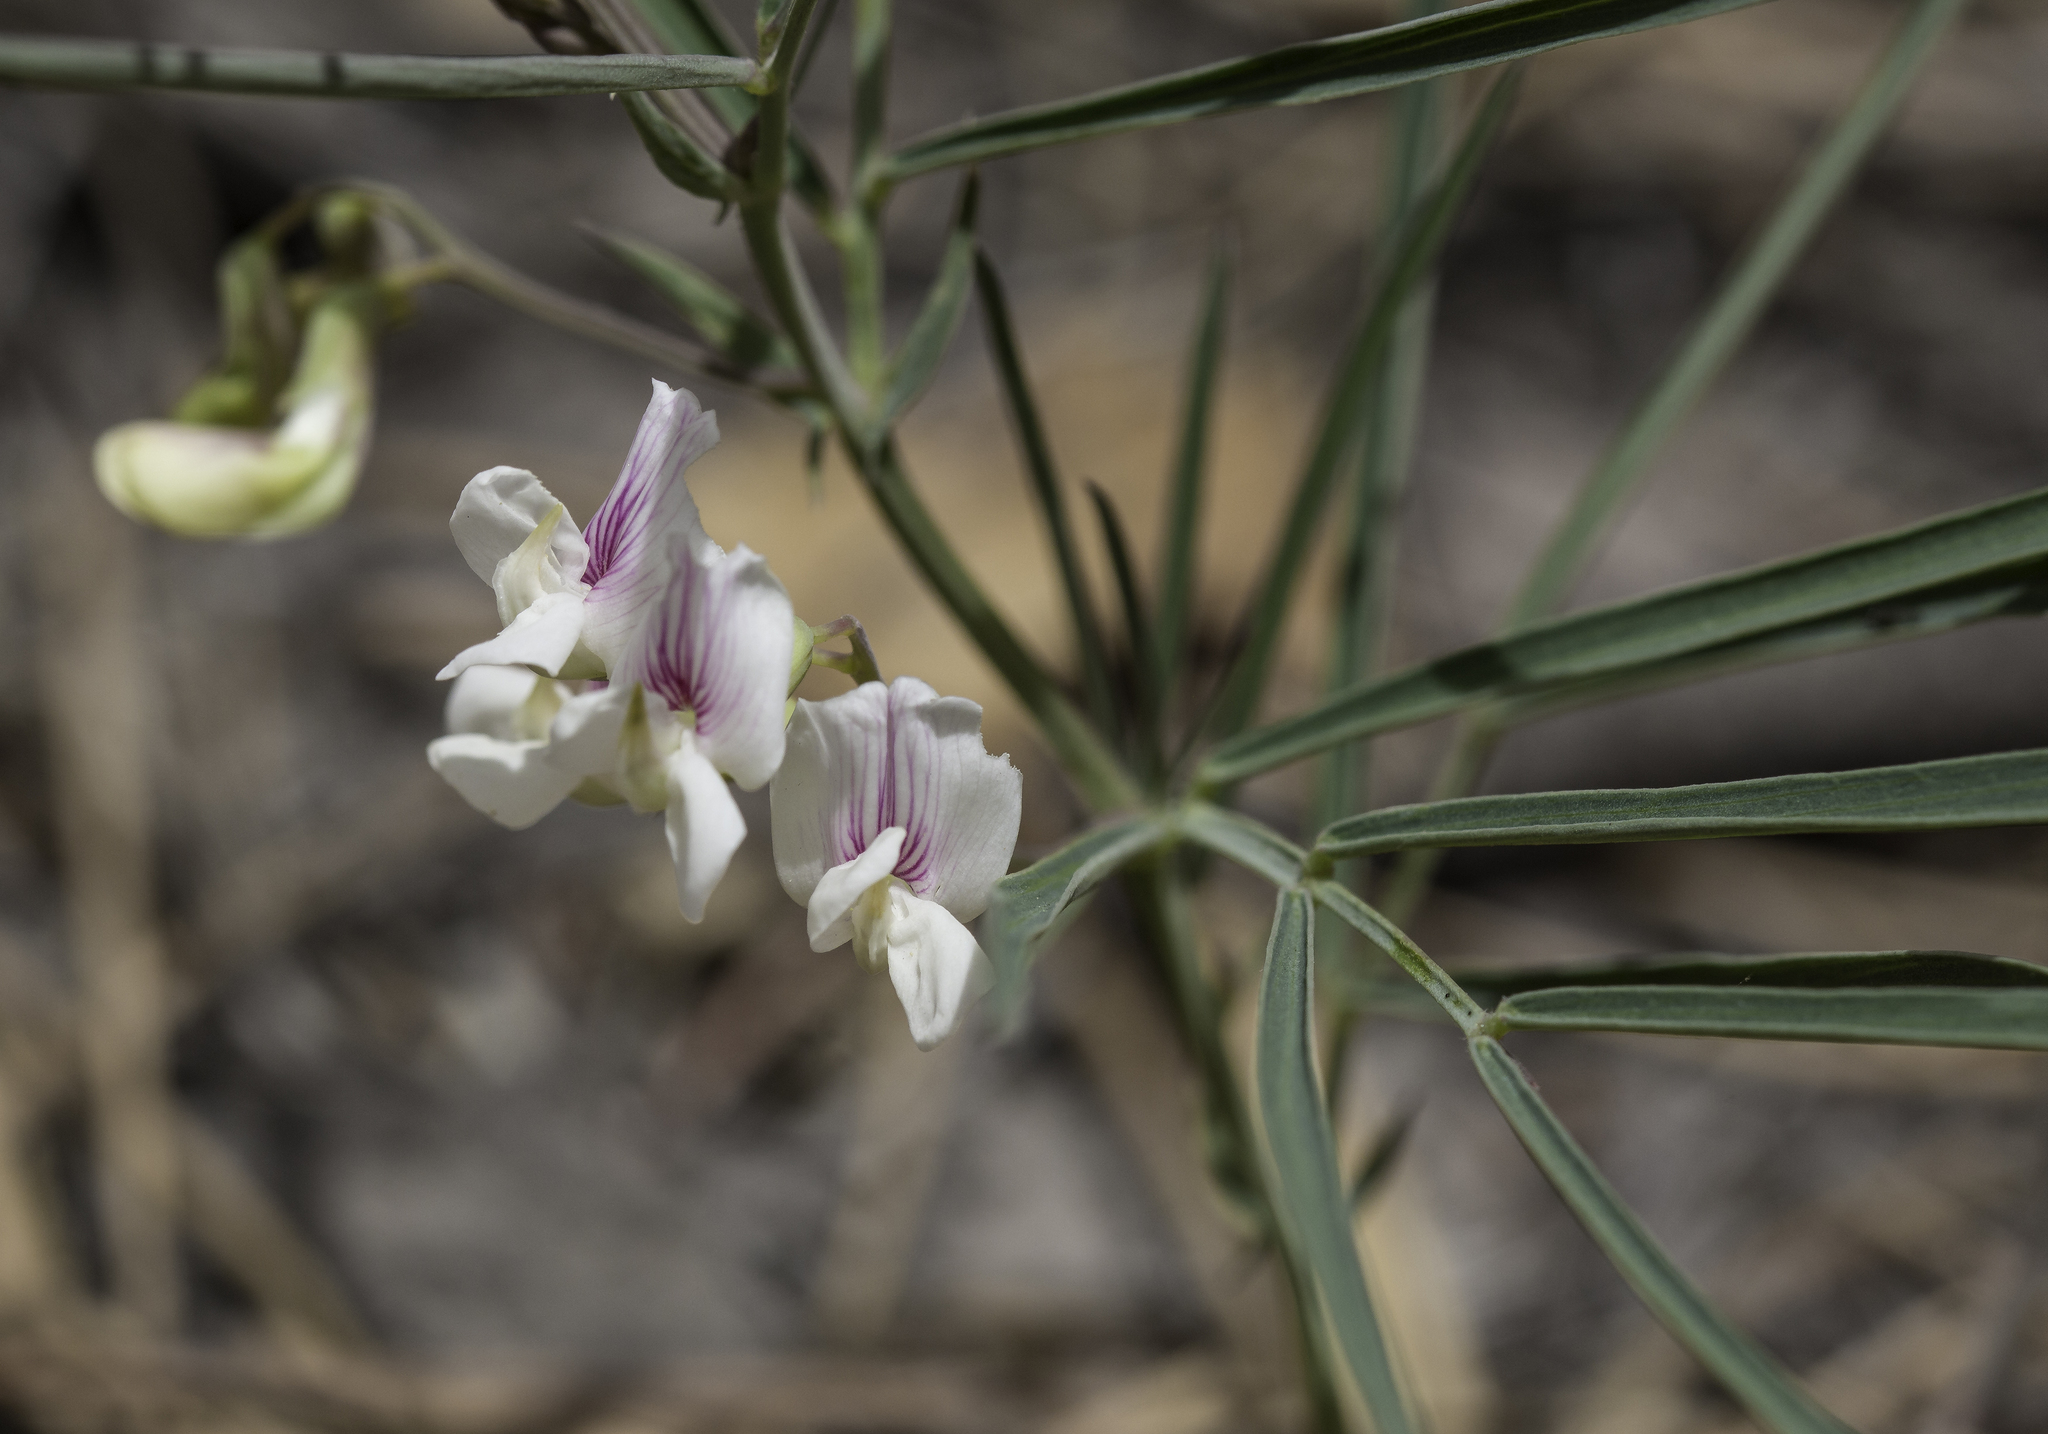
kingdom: Plantae
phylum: Tracheophyta
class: Magnoliopsida
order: Fabales
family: Fabaceae
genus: Lathyrus
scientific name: Lathyrus lanszwertii
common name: Lanszwert's vetchling
